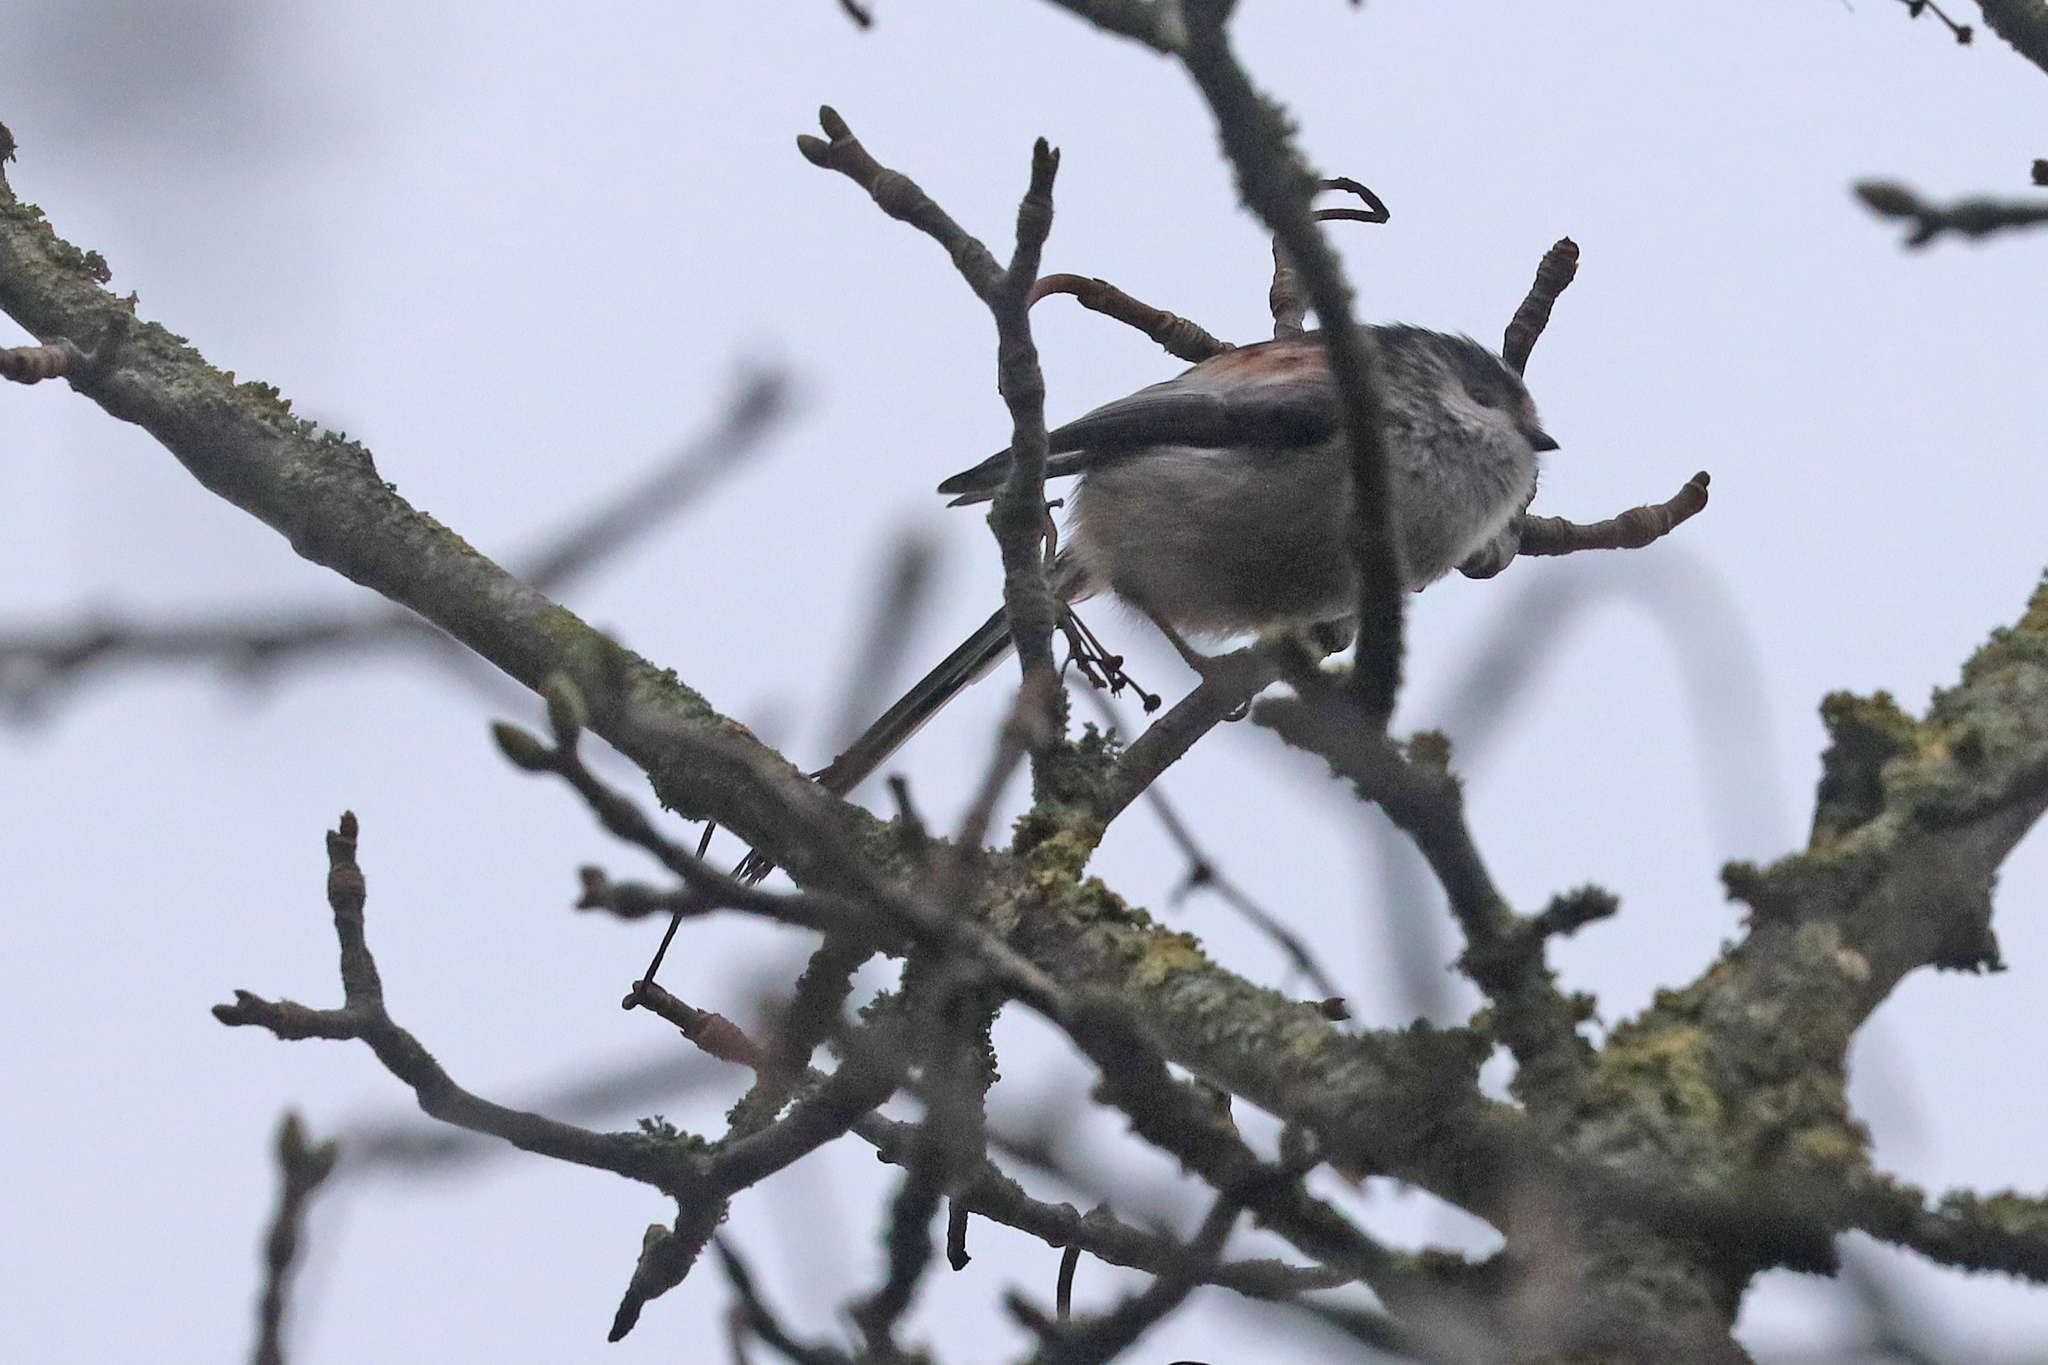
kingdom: Animalia
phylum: Chordata
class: Aves
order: Passeriformes
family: Aegithalidae
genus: Aegithalos
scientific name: Aegithalos caudatus
